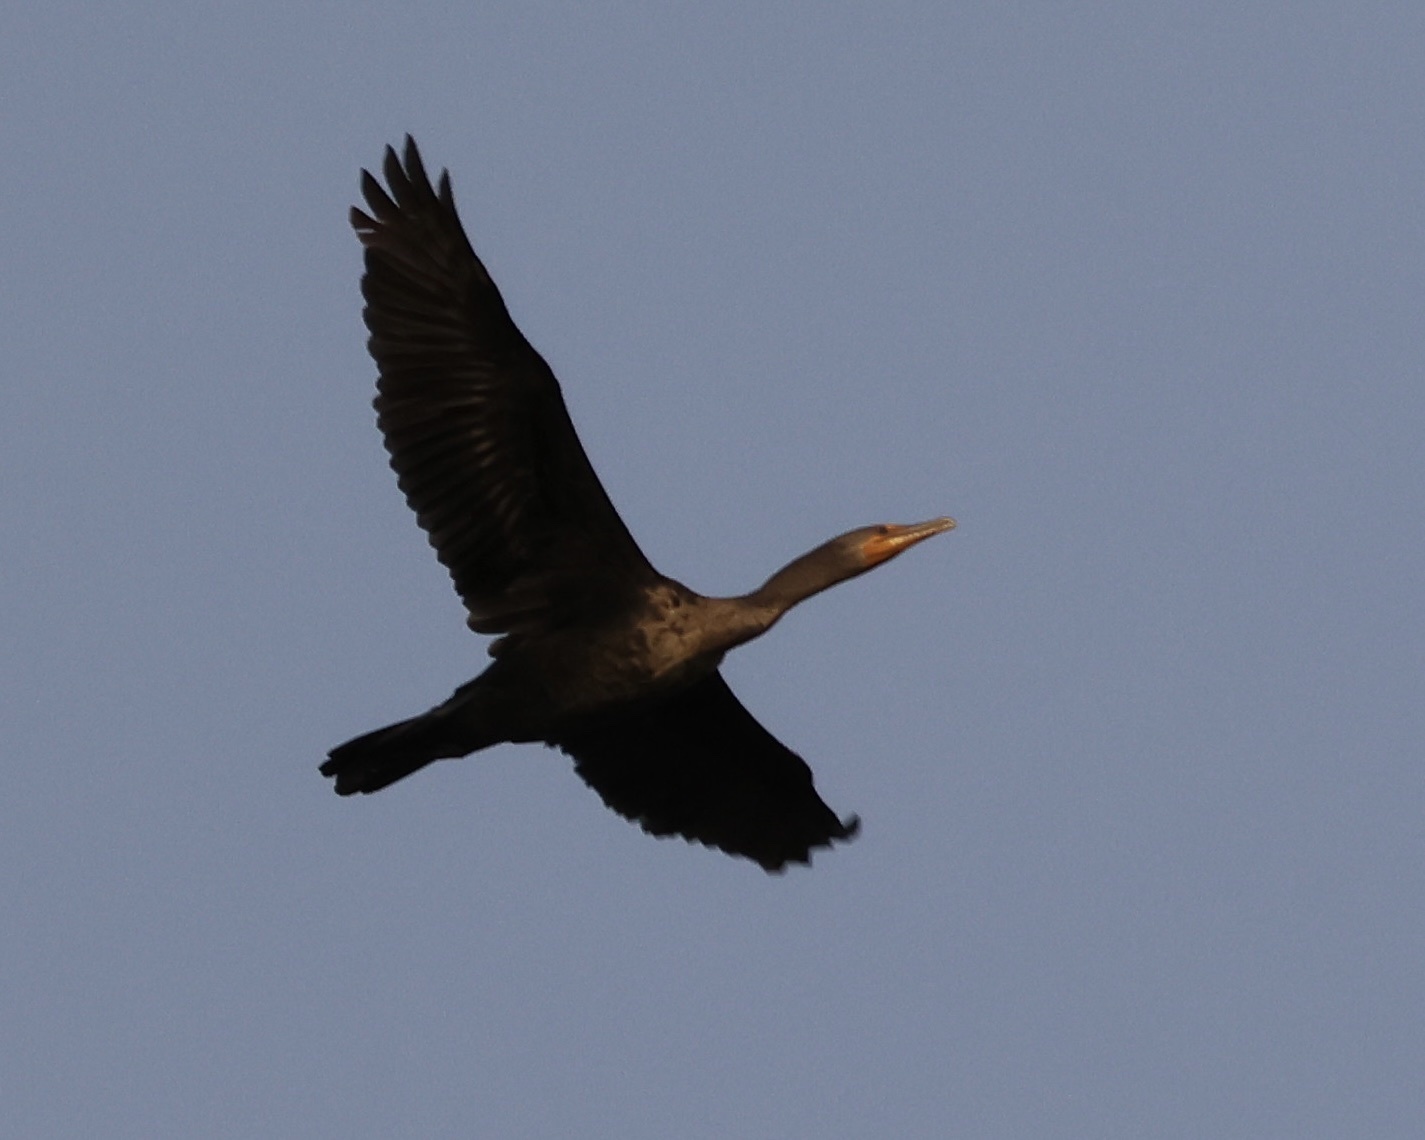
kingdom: Animalia
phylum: Chordata
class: Aves
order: Suliformes
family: Phalacrocoracidae
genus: Phalacrocorax
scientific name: Phalacrocorax auritus
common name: Double-crested cormorant
